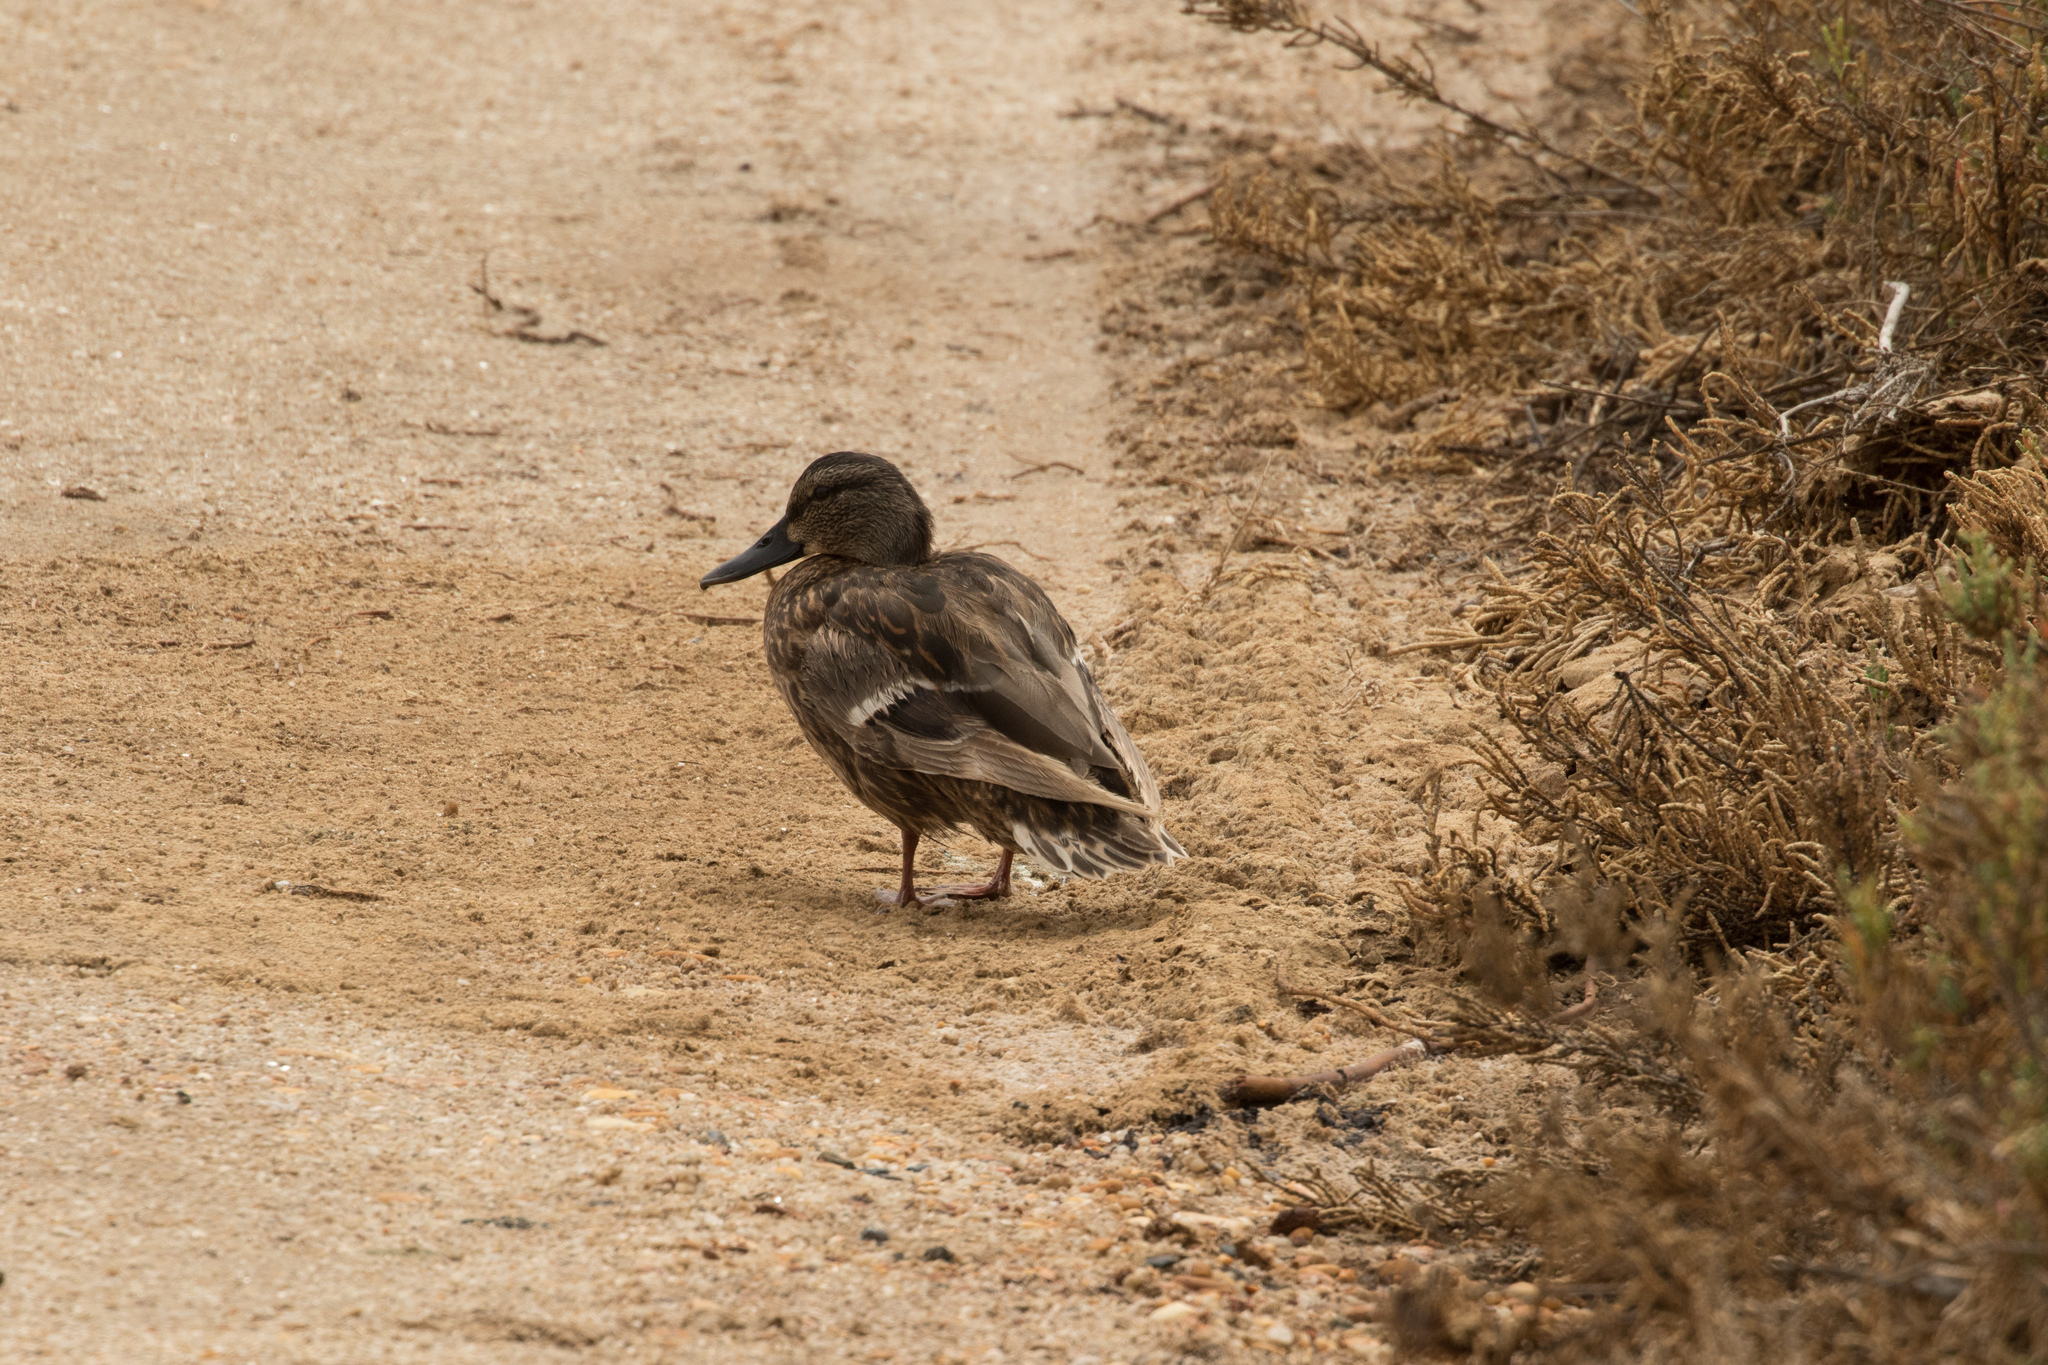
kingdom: Animalia
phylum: Chordata
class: Aves
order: Anseriformes
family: Anatidae
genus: Anas
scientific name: Anas platyrhynchos
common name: Mallard
